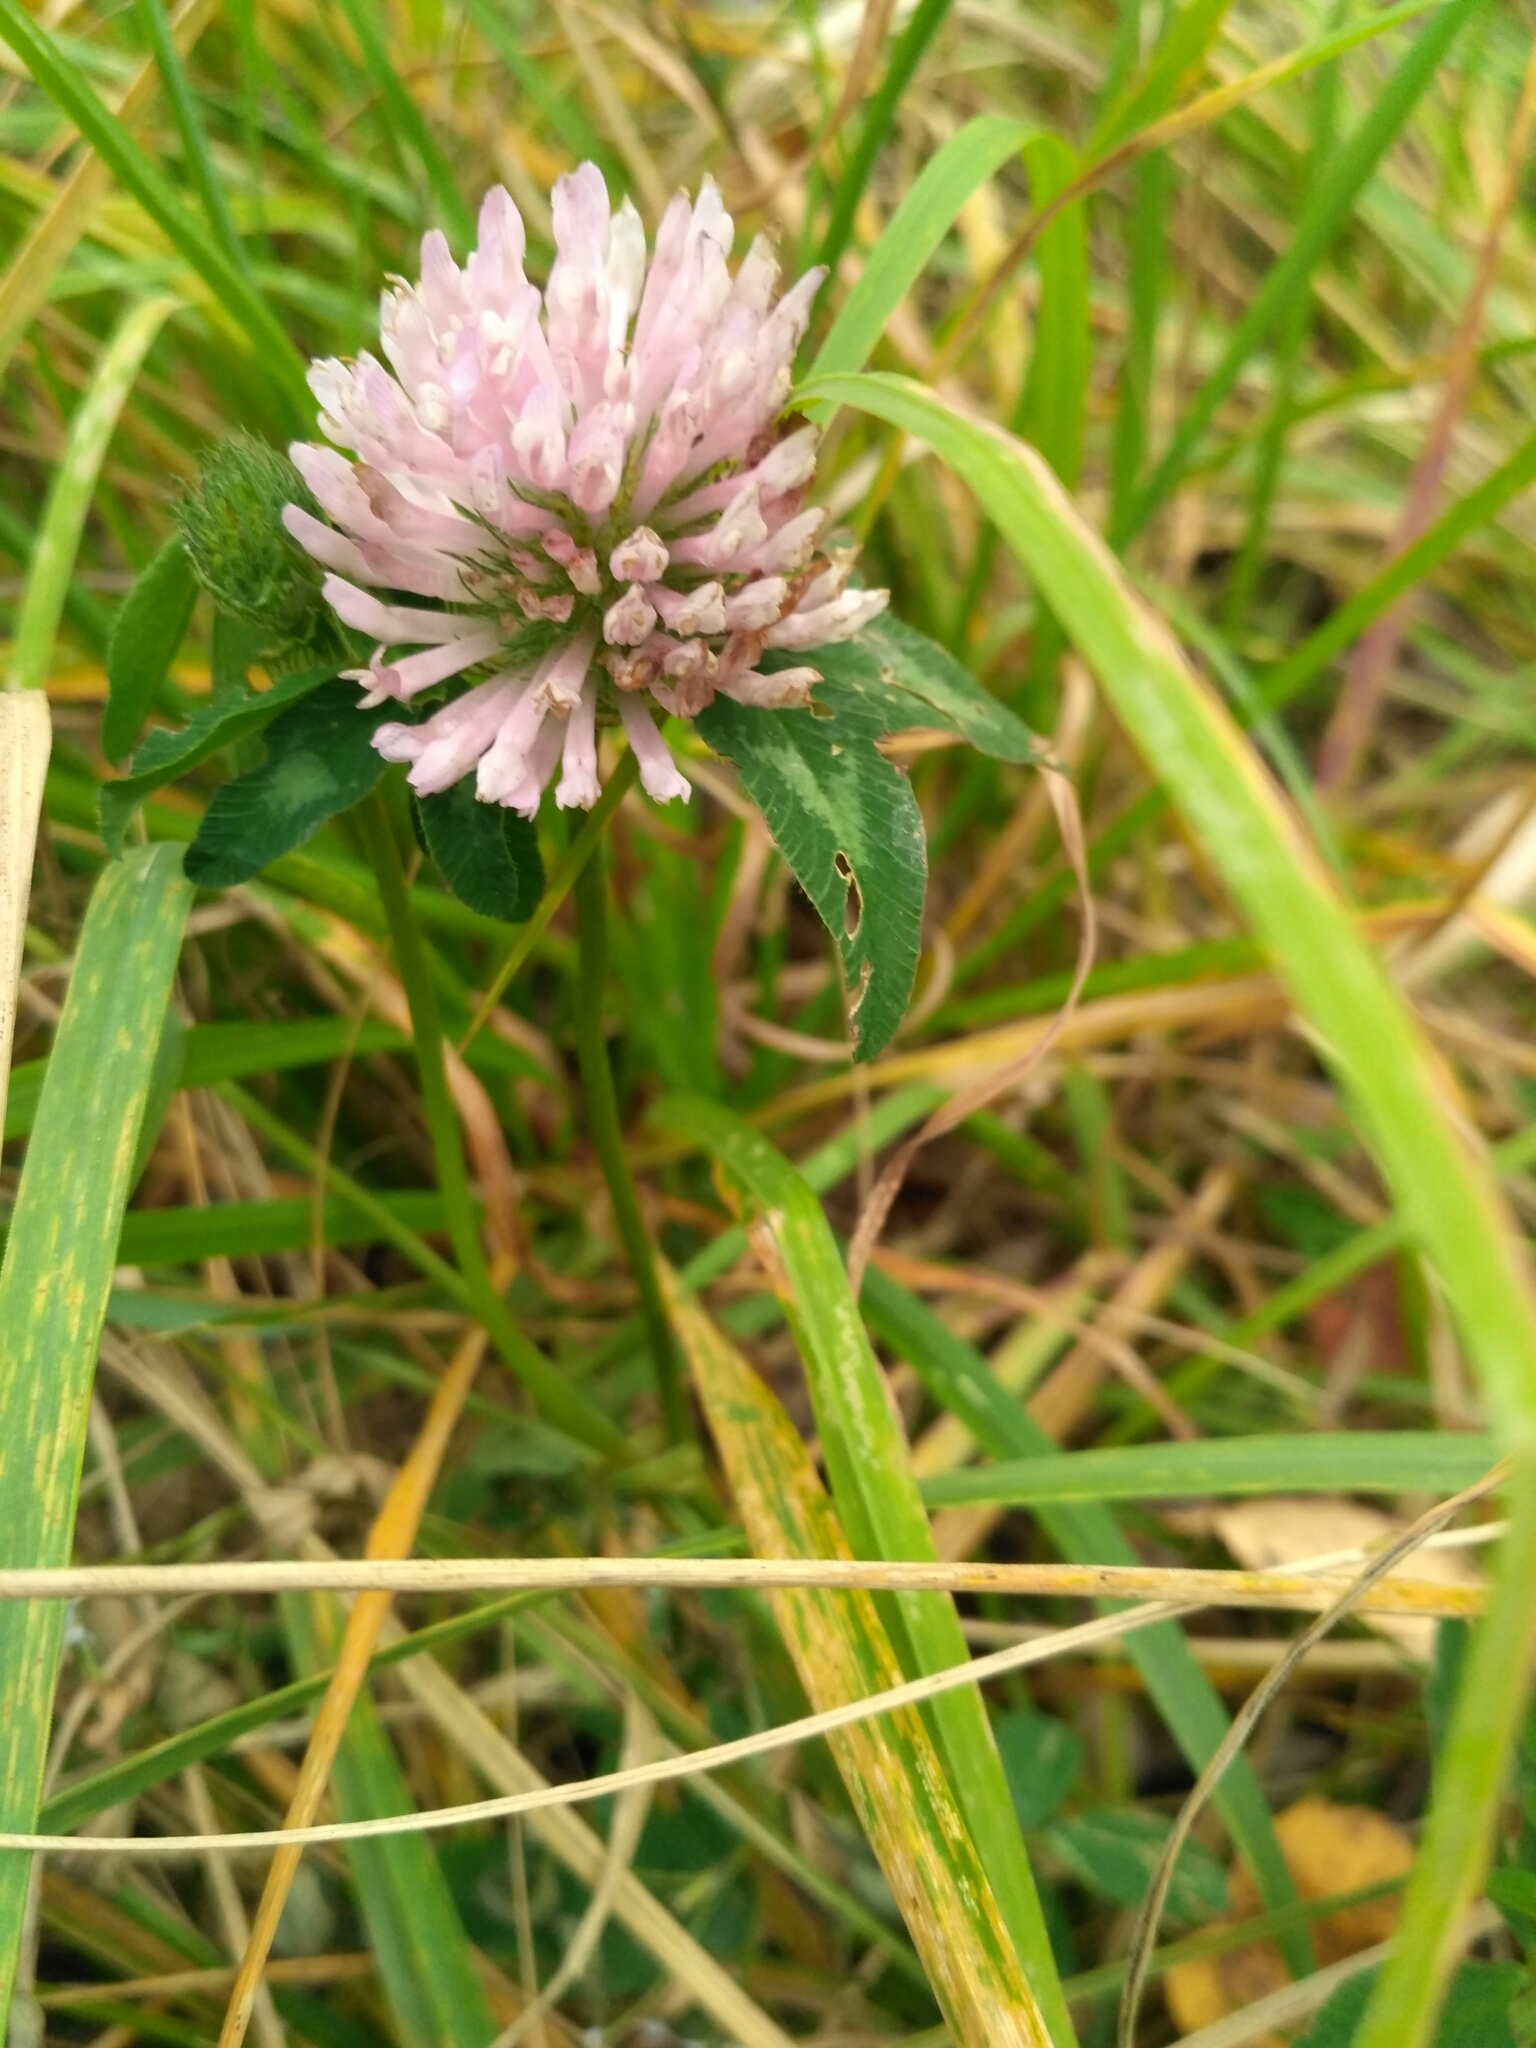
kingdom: Plantae
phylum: Tracheophyta
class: Magnoliopsida
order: Fabales
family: Fabaceae
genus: Trifolium
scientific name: Trifolium pratense
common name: Red clover
